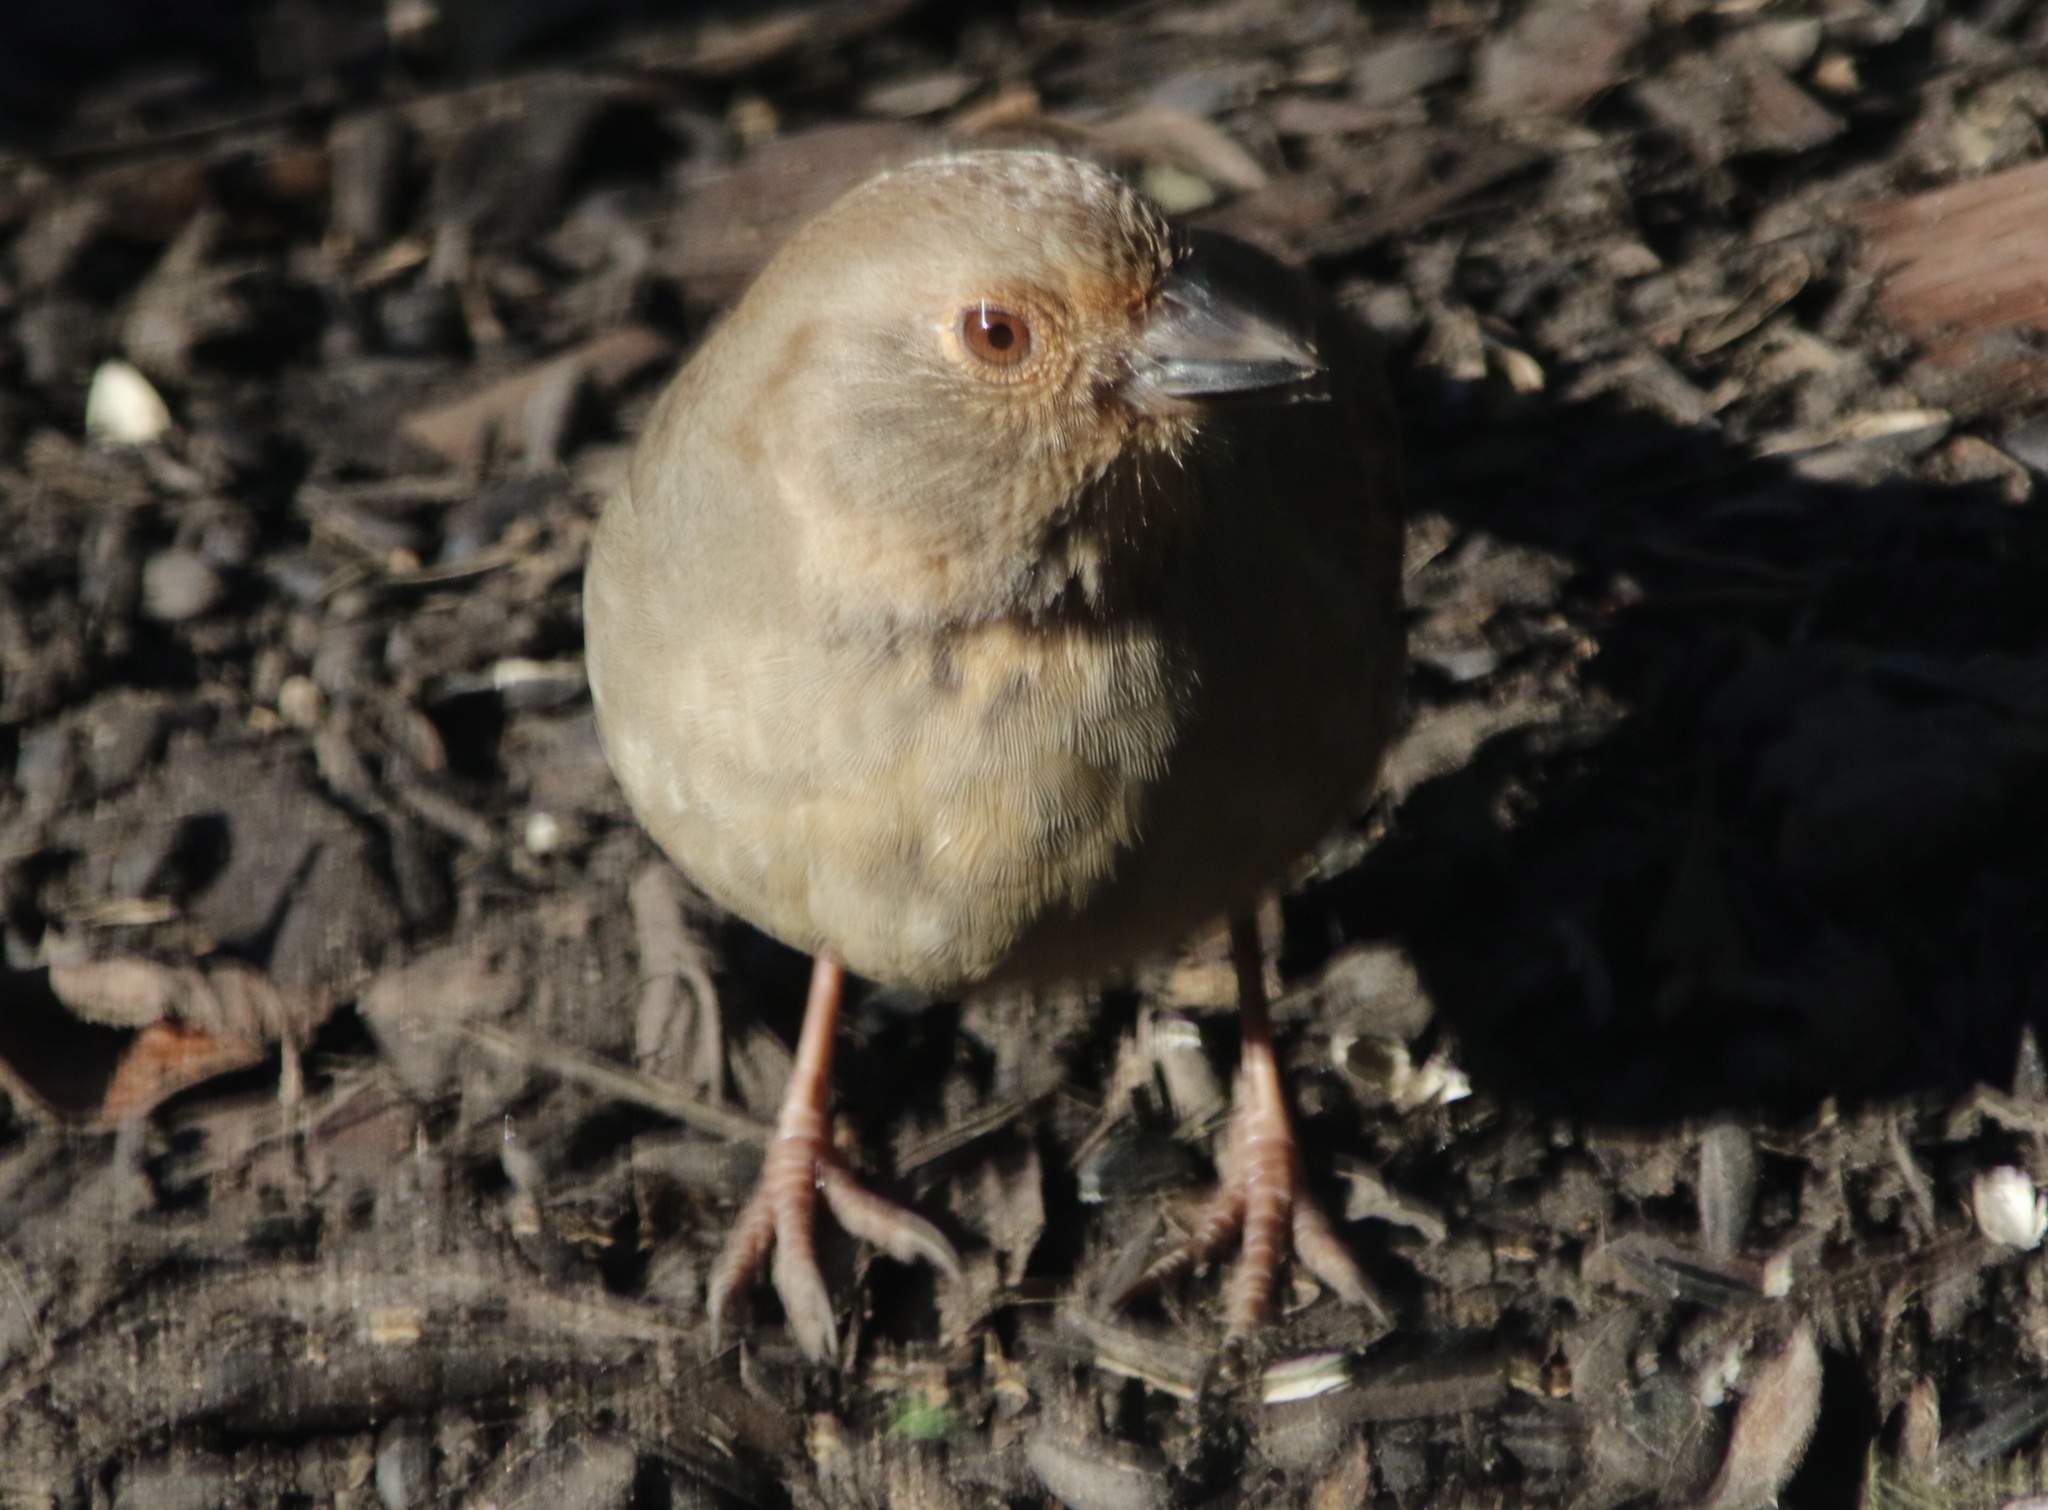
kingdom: Animalia
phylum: Chordata
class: Aves
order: Passeriformes
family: Passerellidae
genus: Melozone
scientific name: Melozone crissalis
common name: California towhee
